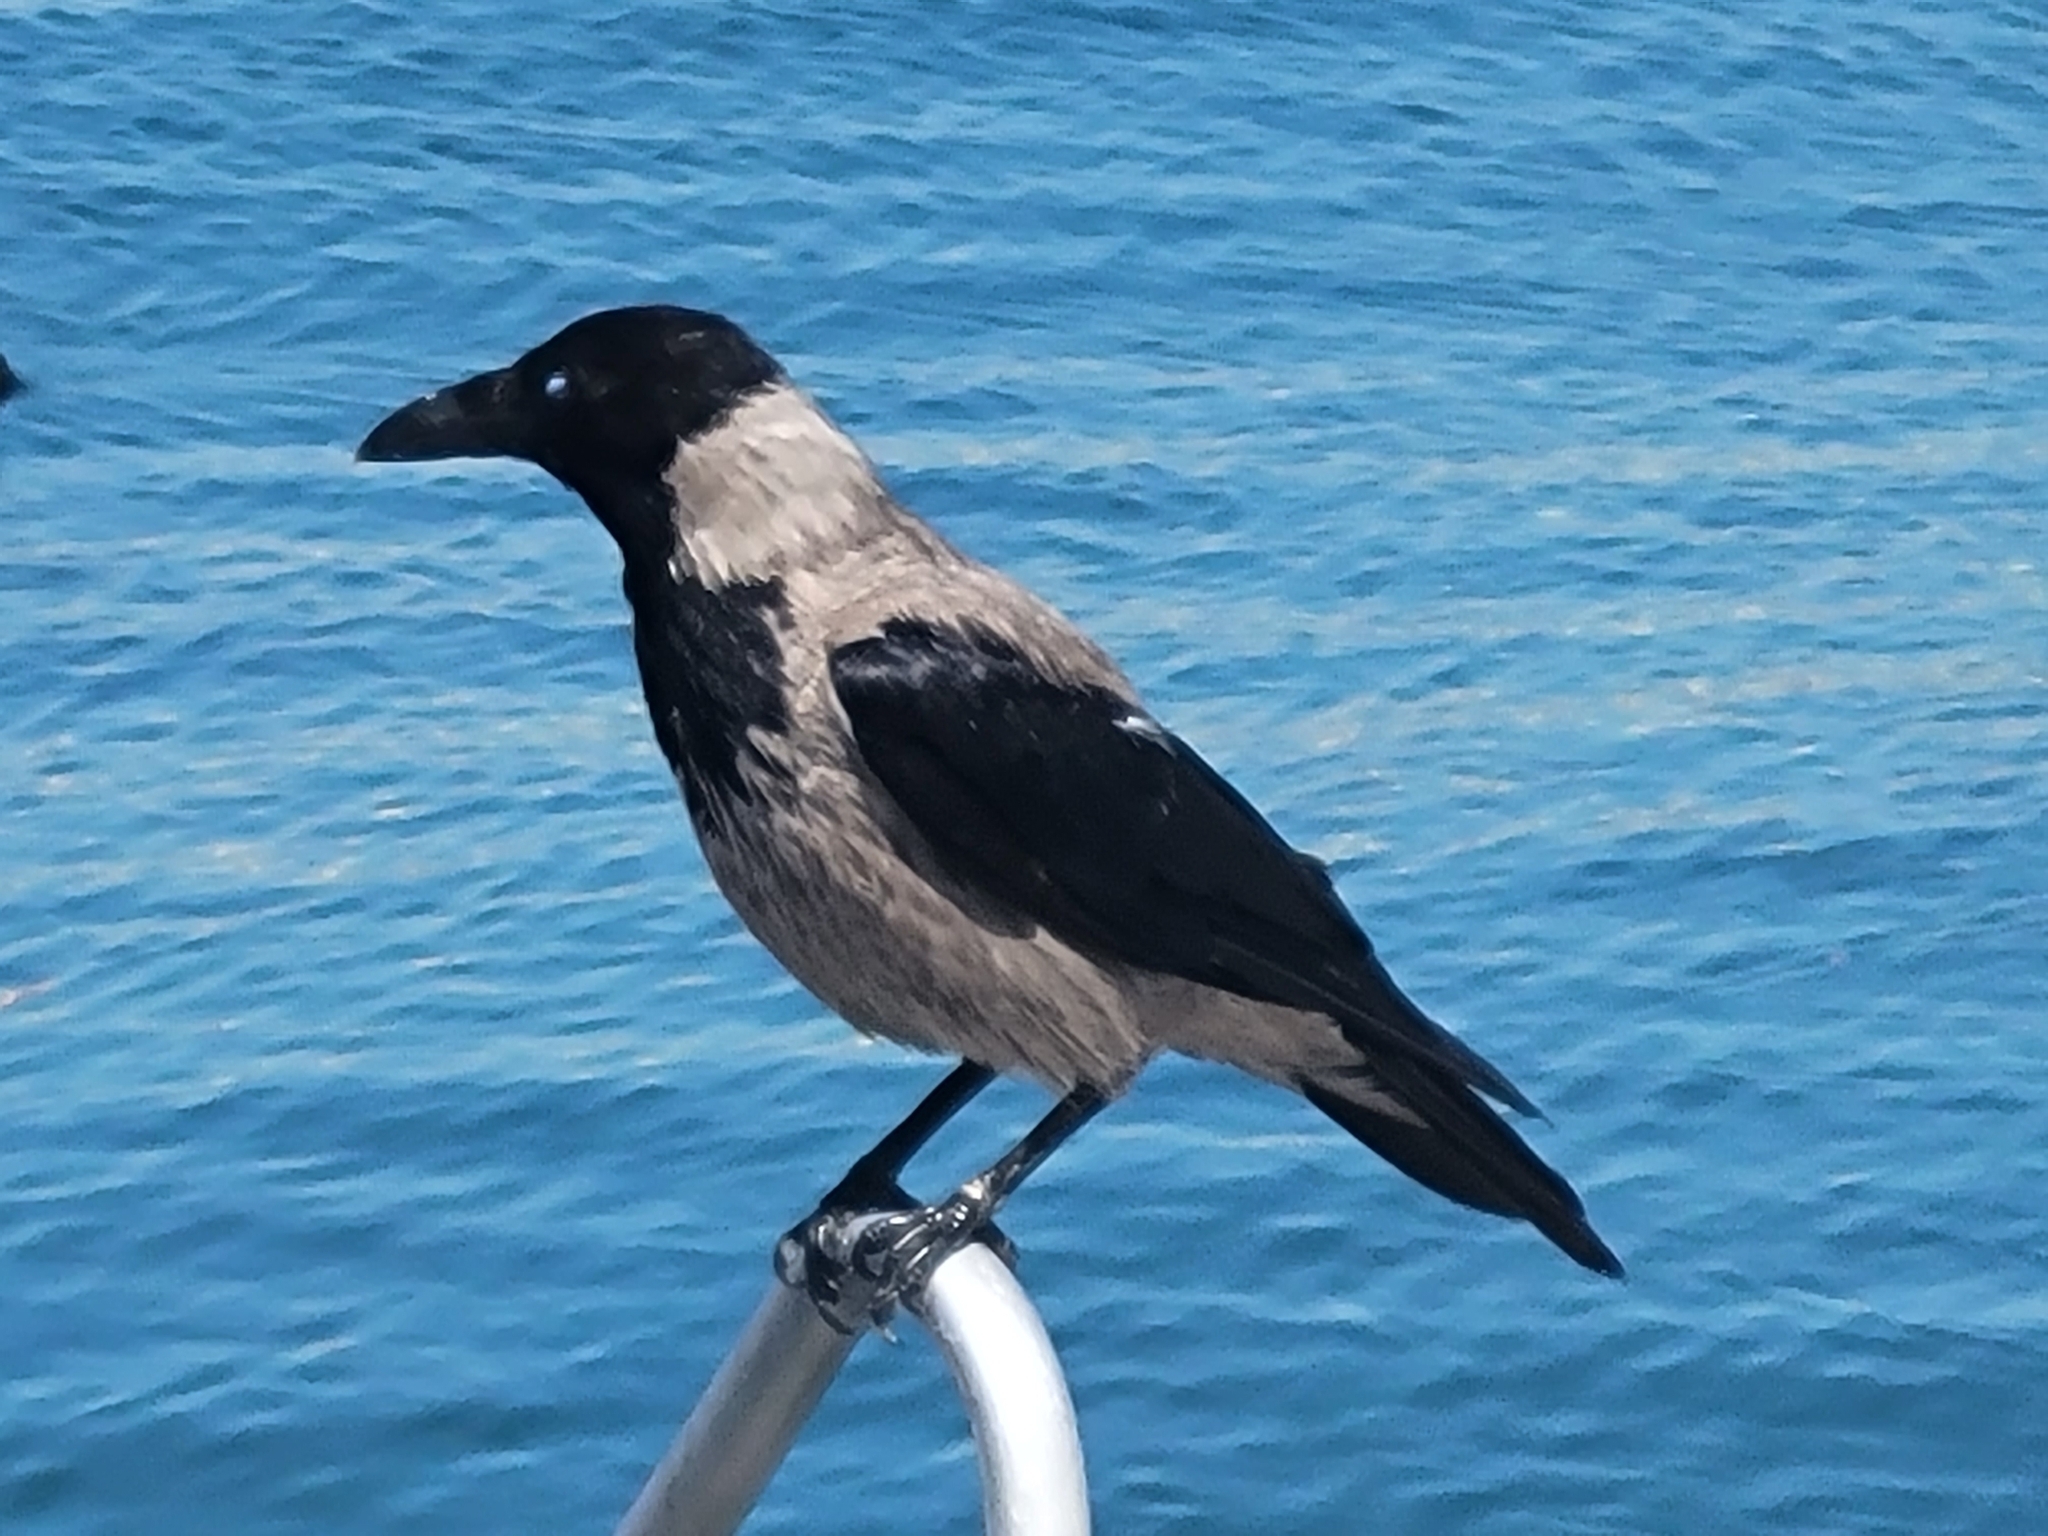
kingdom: Animalia
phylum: Chordata
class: Aves
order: Passeriformes
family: Corvidae
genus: Corvus
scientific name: Corvus cornix
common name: Hooded crow
